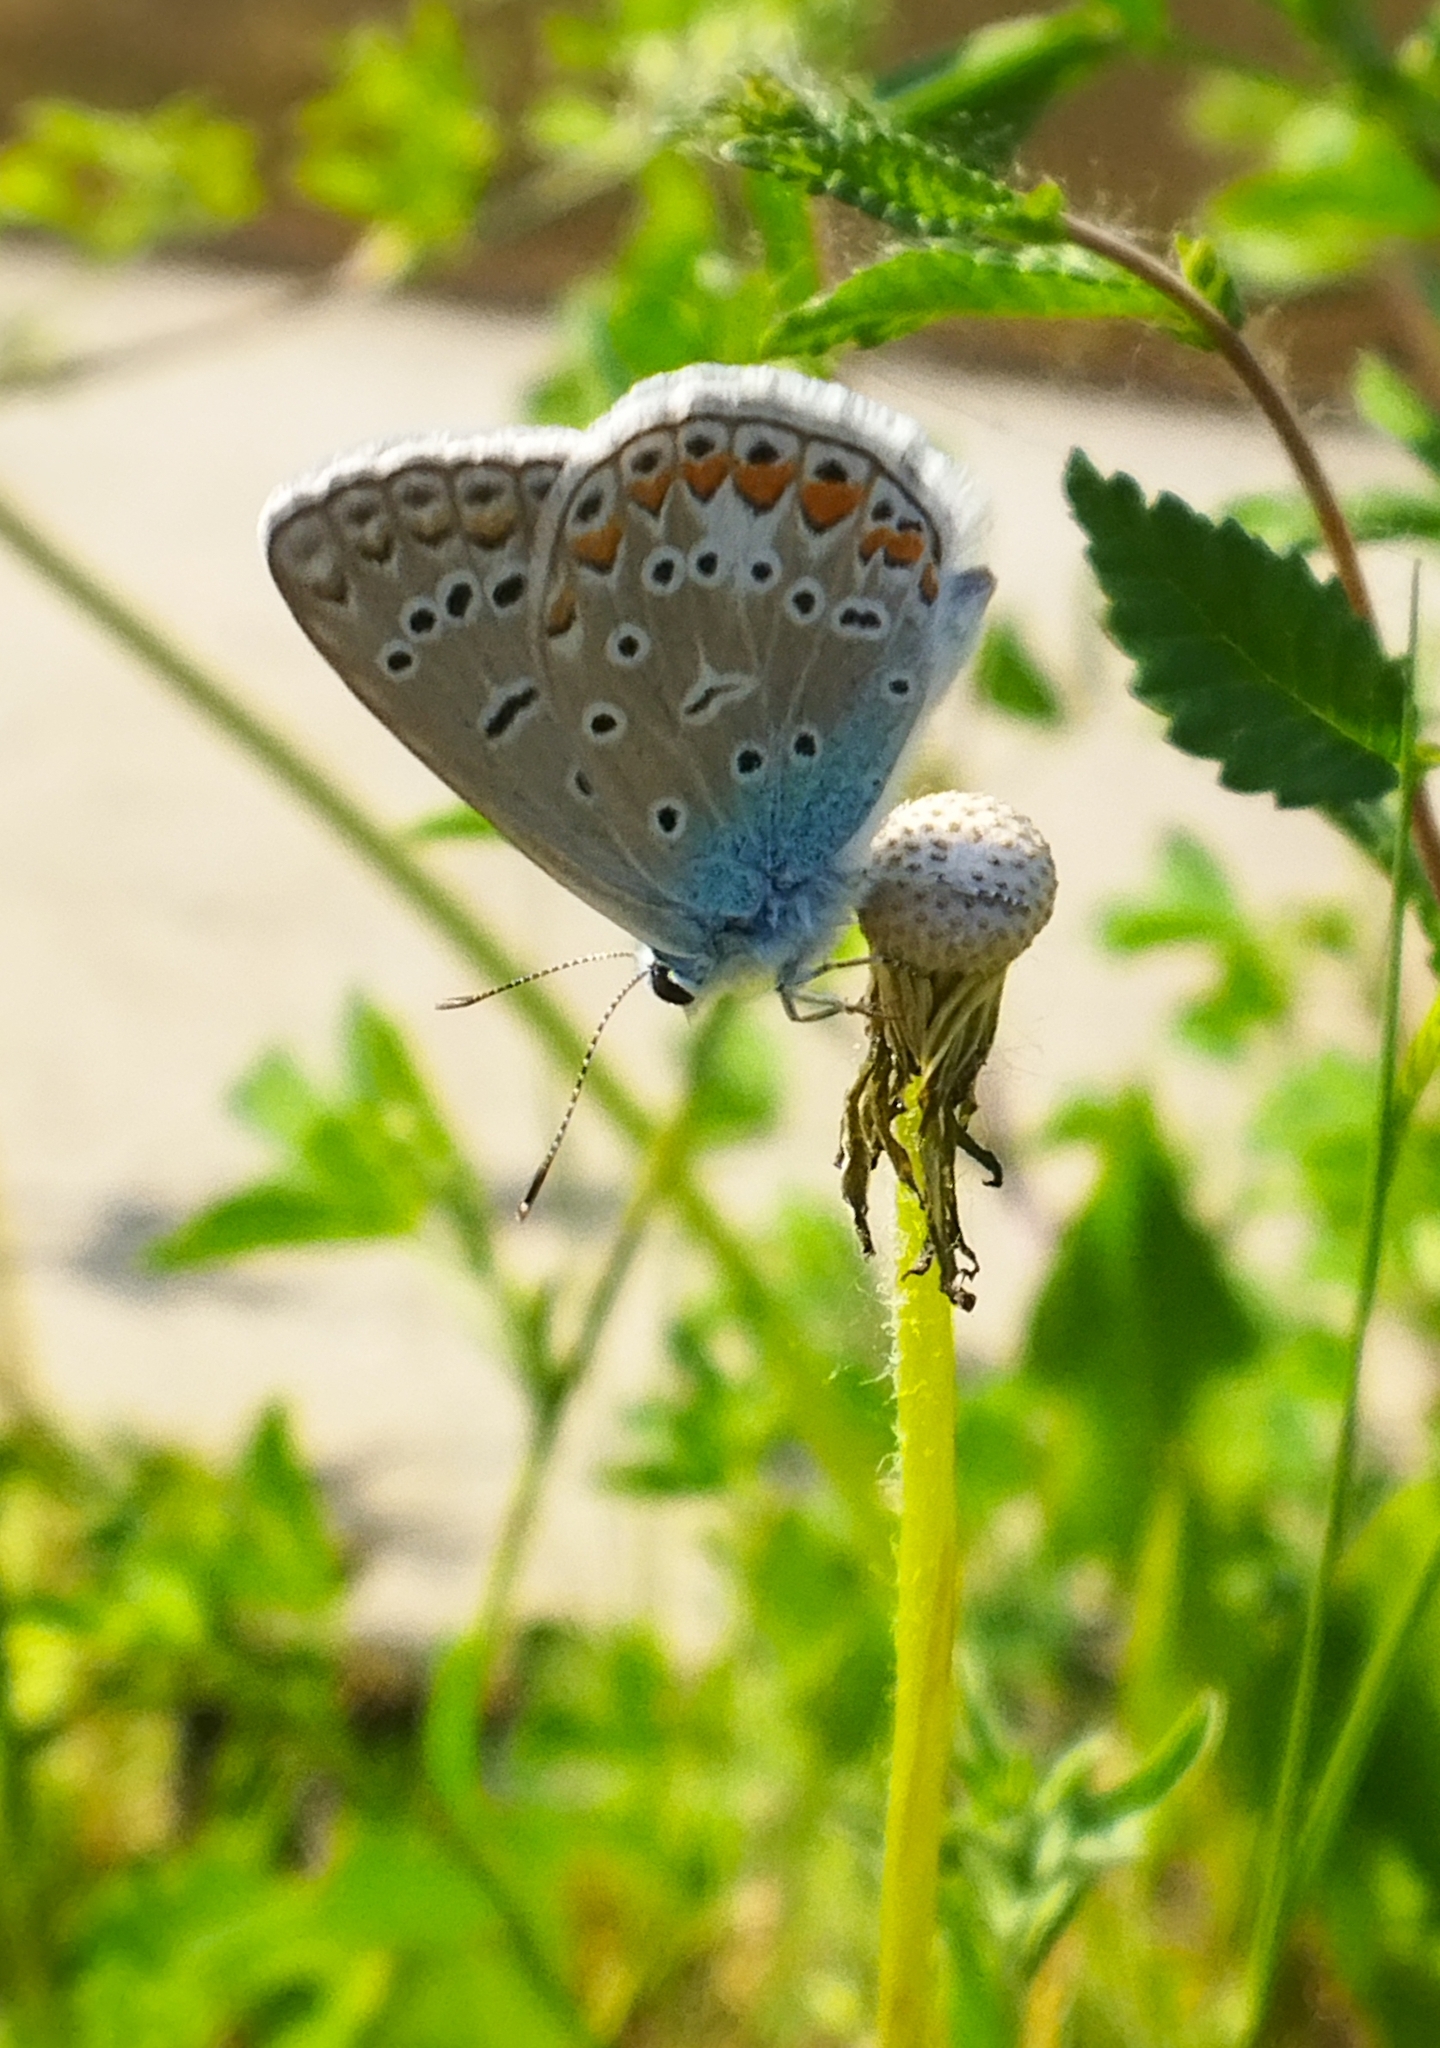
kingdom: Animalia
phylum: Arthropoda
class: Insecta
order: Lepidoptera
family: Lycaenidae
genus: Polyommatus
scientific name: Polyommatus icarus
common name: Common blue
